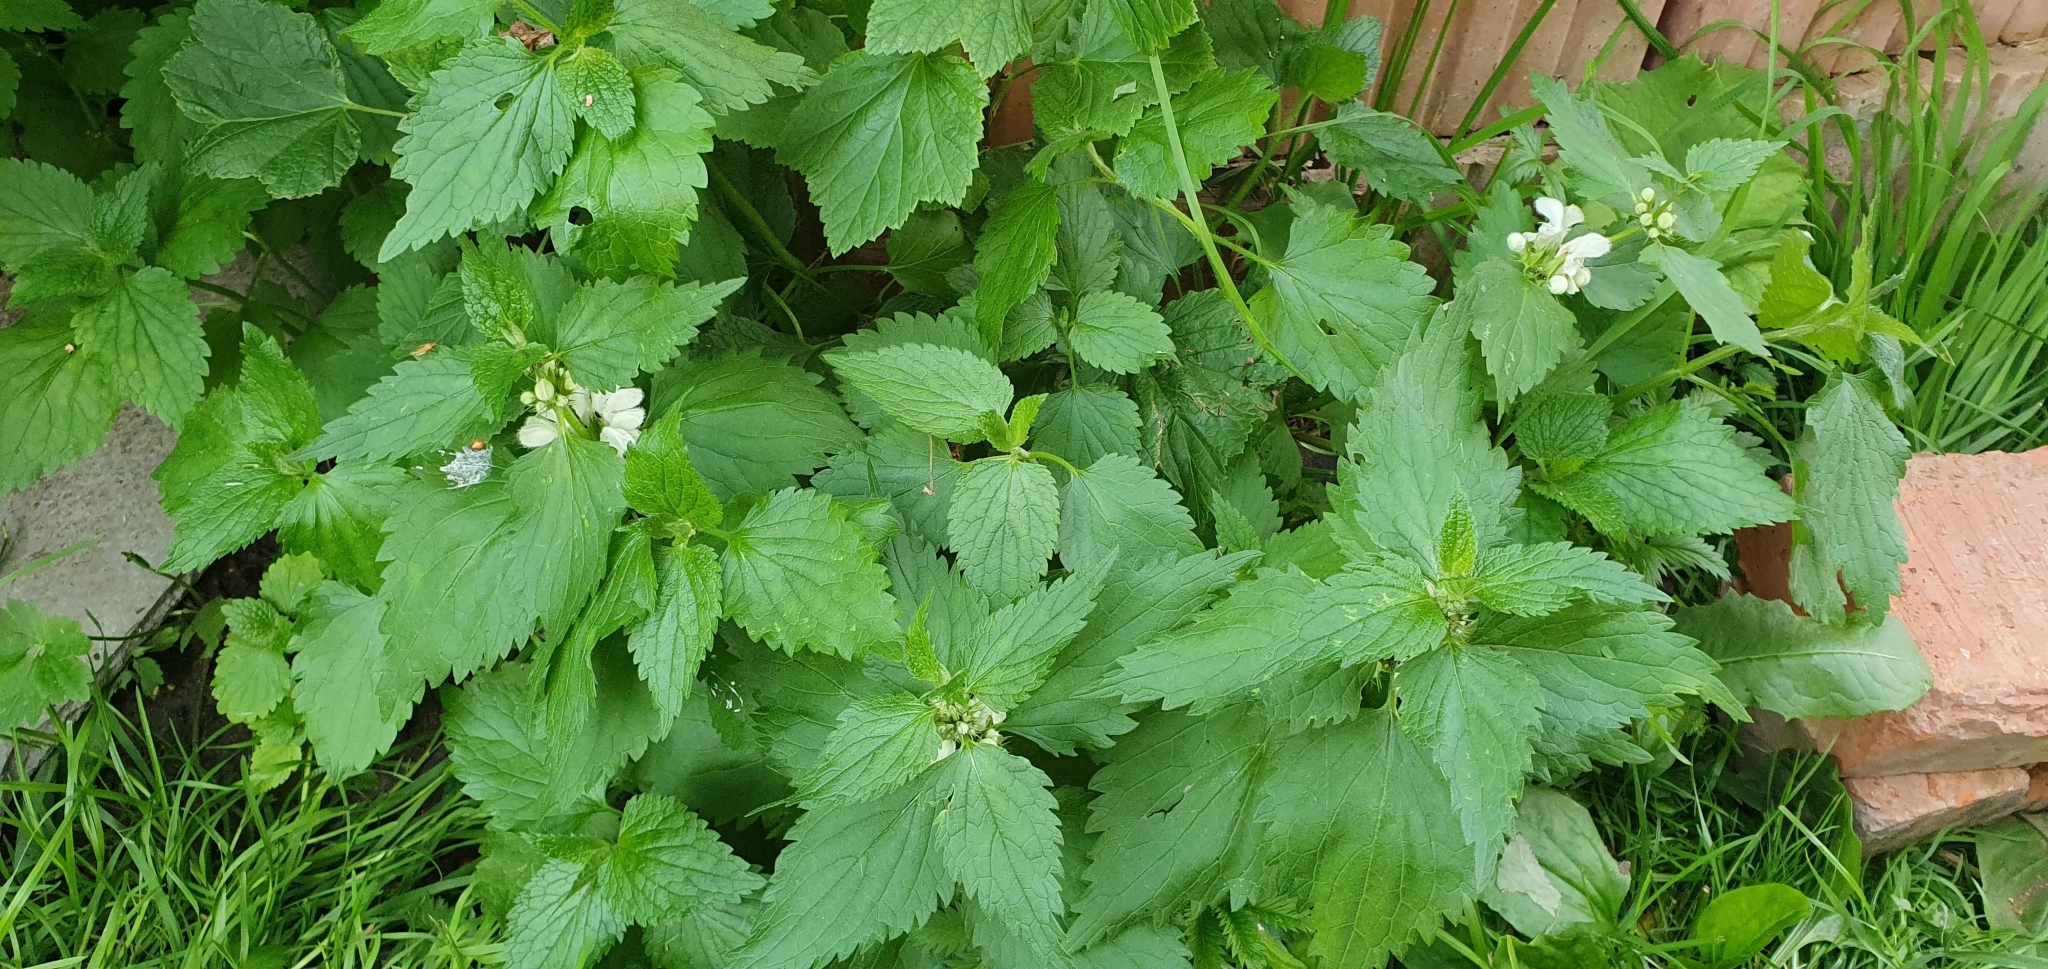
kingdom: Plantae
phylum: Tracheophyta
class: Magnoliopsida
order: Lamiales
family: Lamiaceae
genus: Lamium
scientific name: Lamium album
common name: White dead-nettle
